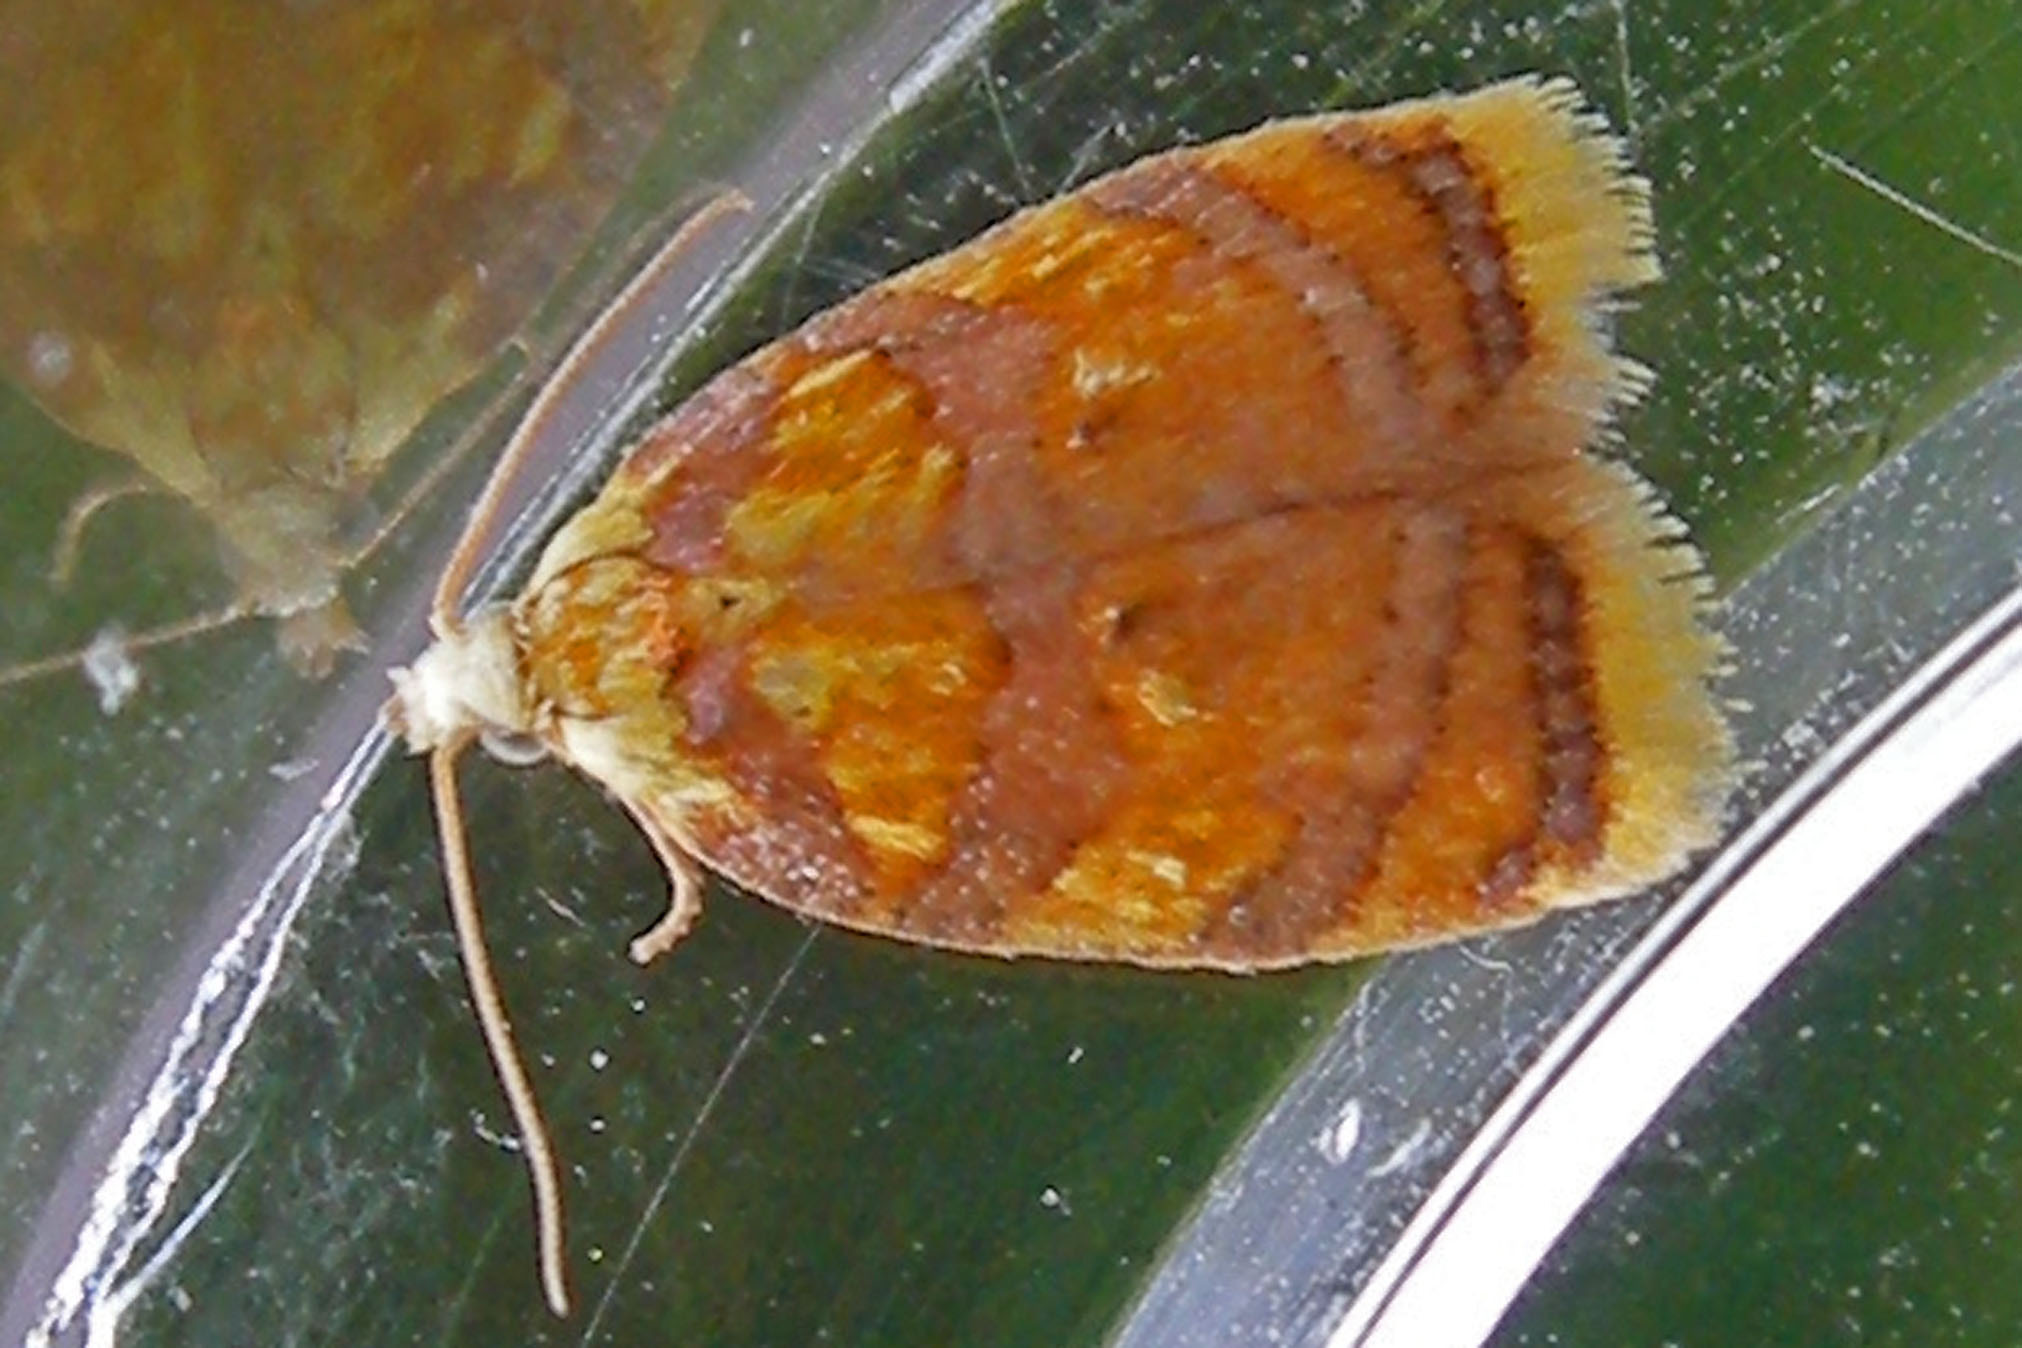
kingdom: Animalia
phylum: Arthropoda
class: Insecta
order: Lepidoptera
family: Tortricidae
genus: Acleris
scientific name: Acleris albicomana
